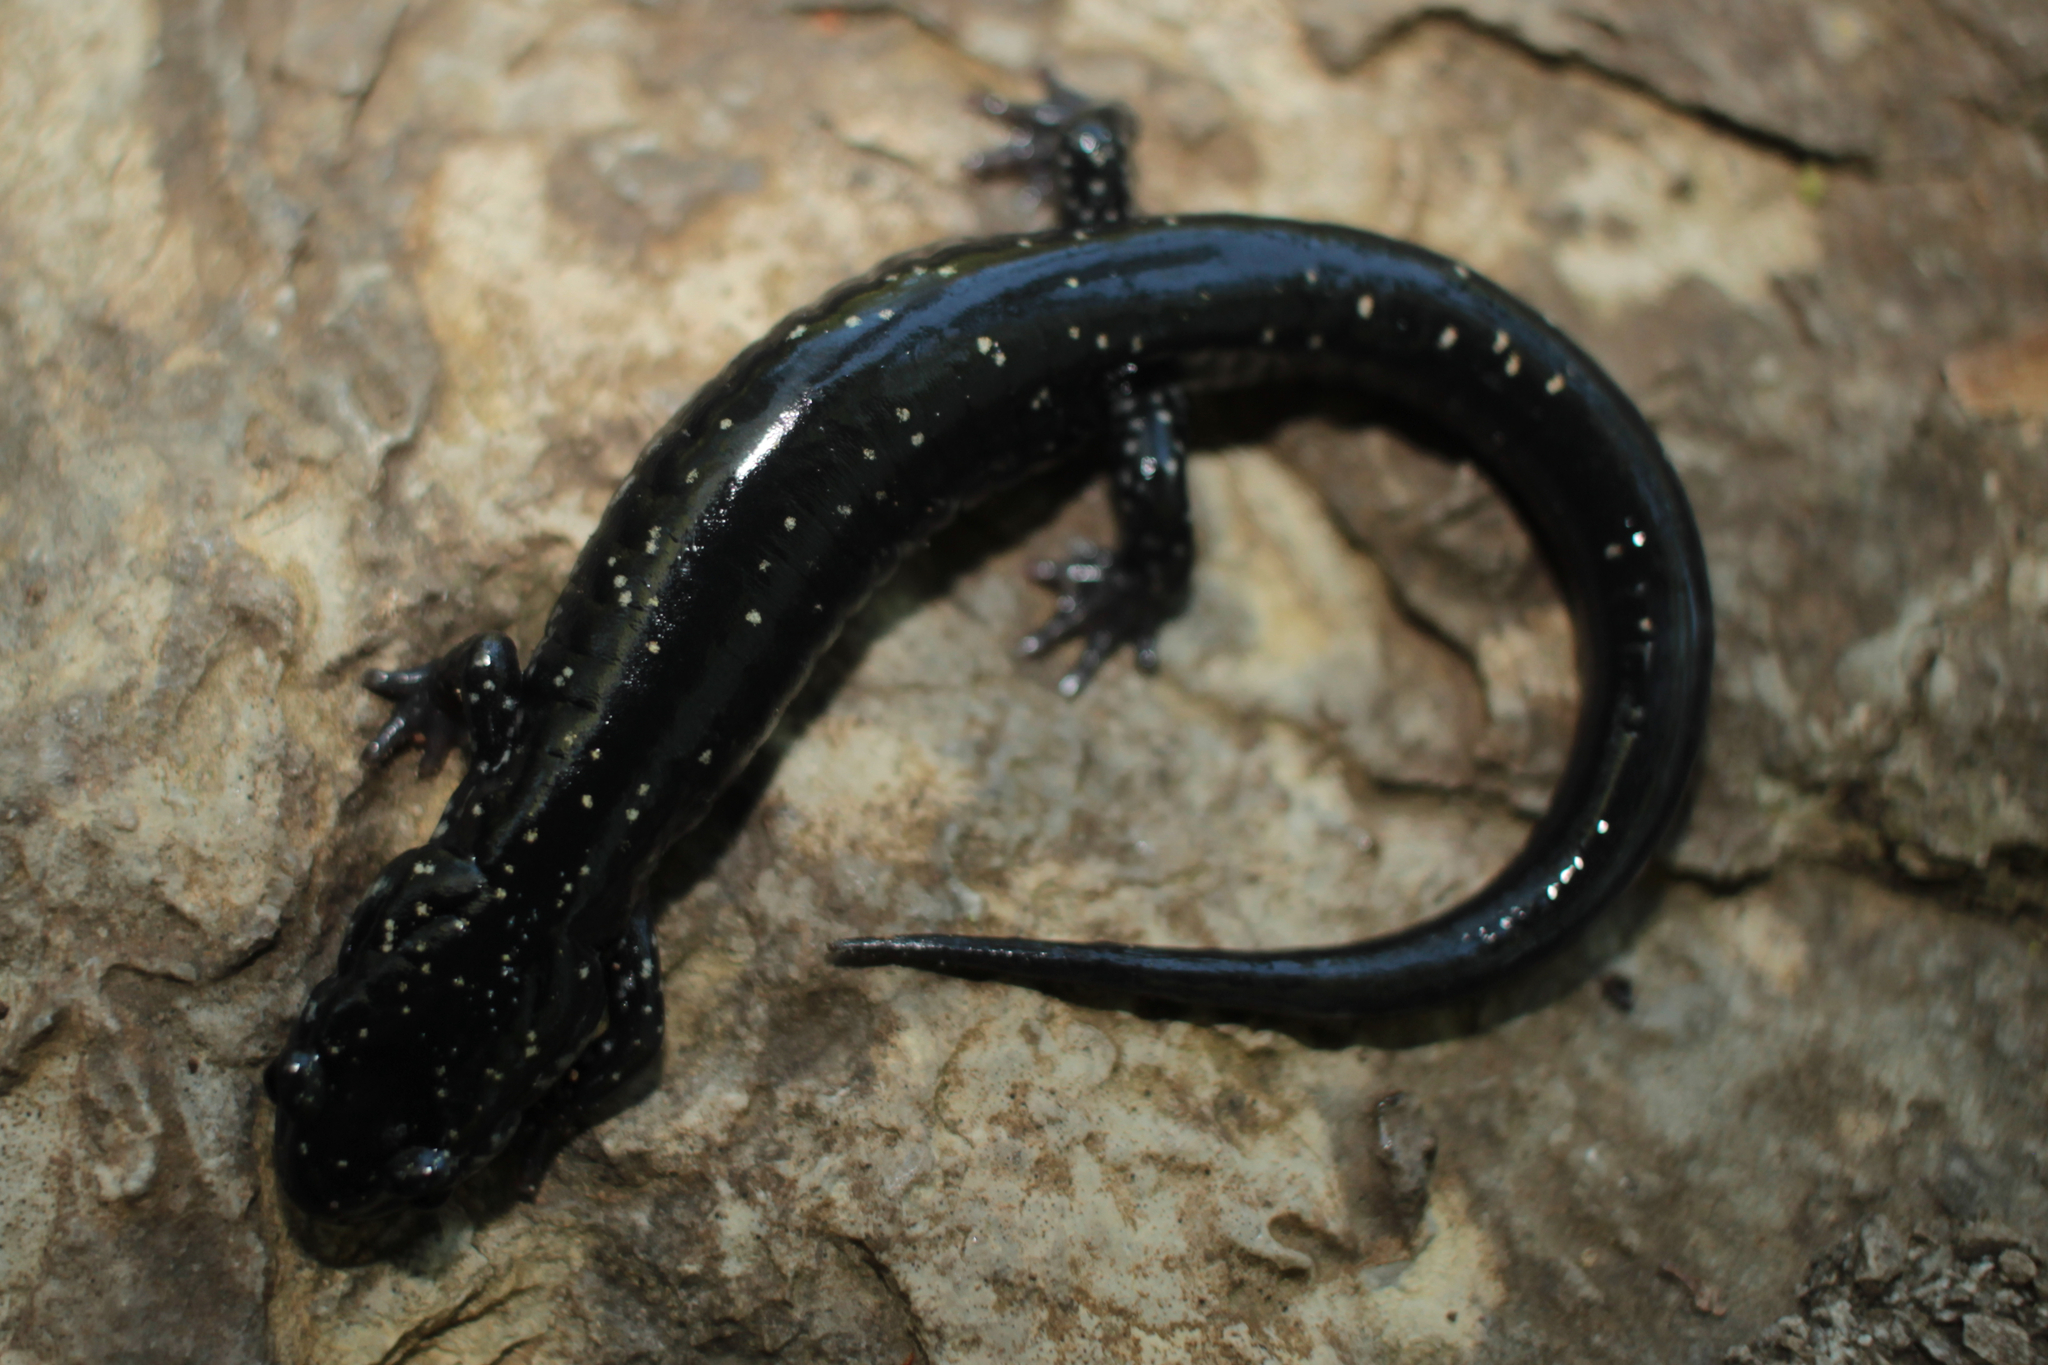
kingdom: Animalia
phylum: Chordata
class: Amphibia
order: Caudata
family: Plethodontidae
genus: Plethodon
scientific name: Plethodon glutinosus
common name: Northern slimy salamander
